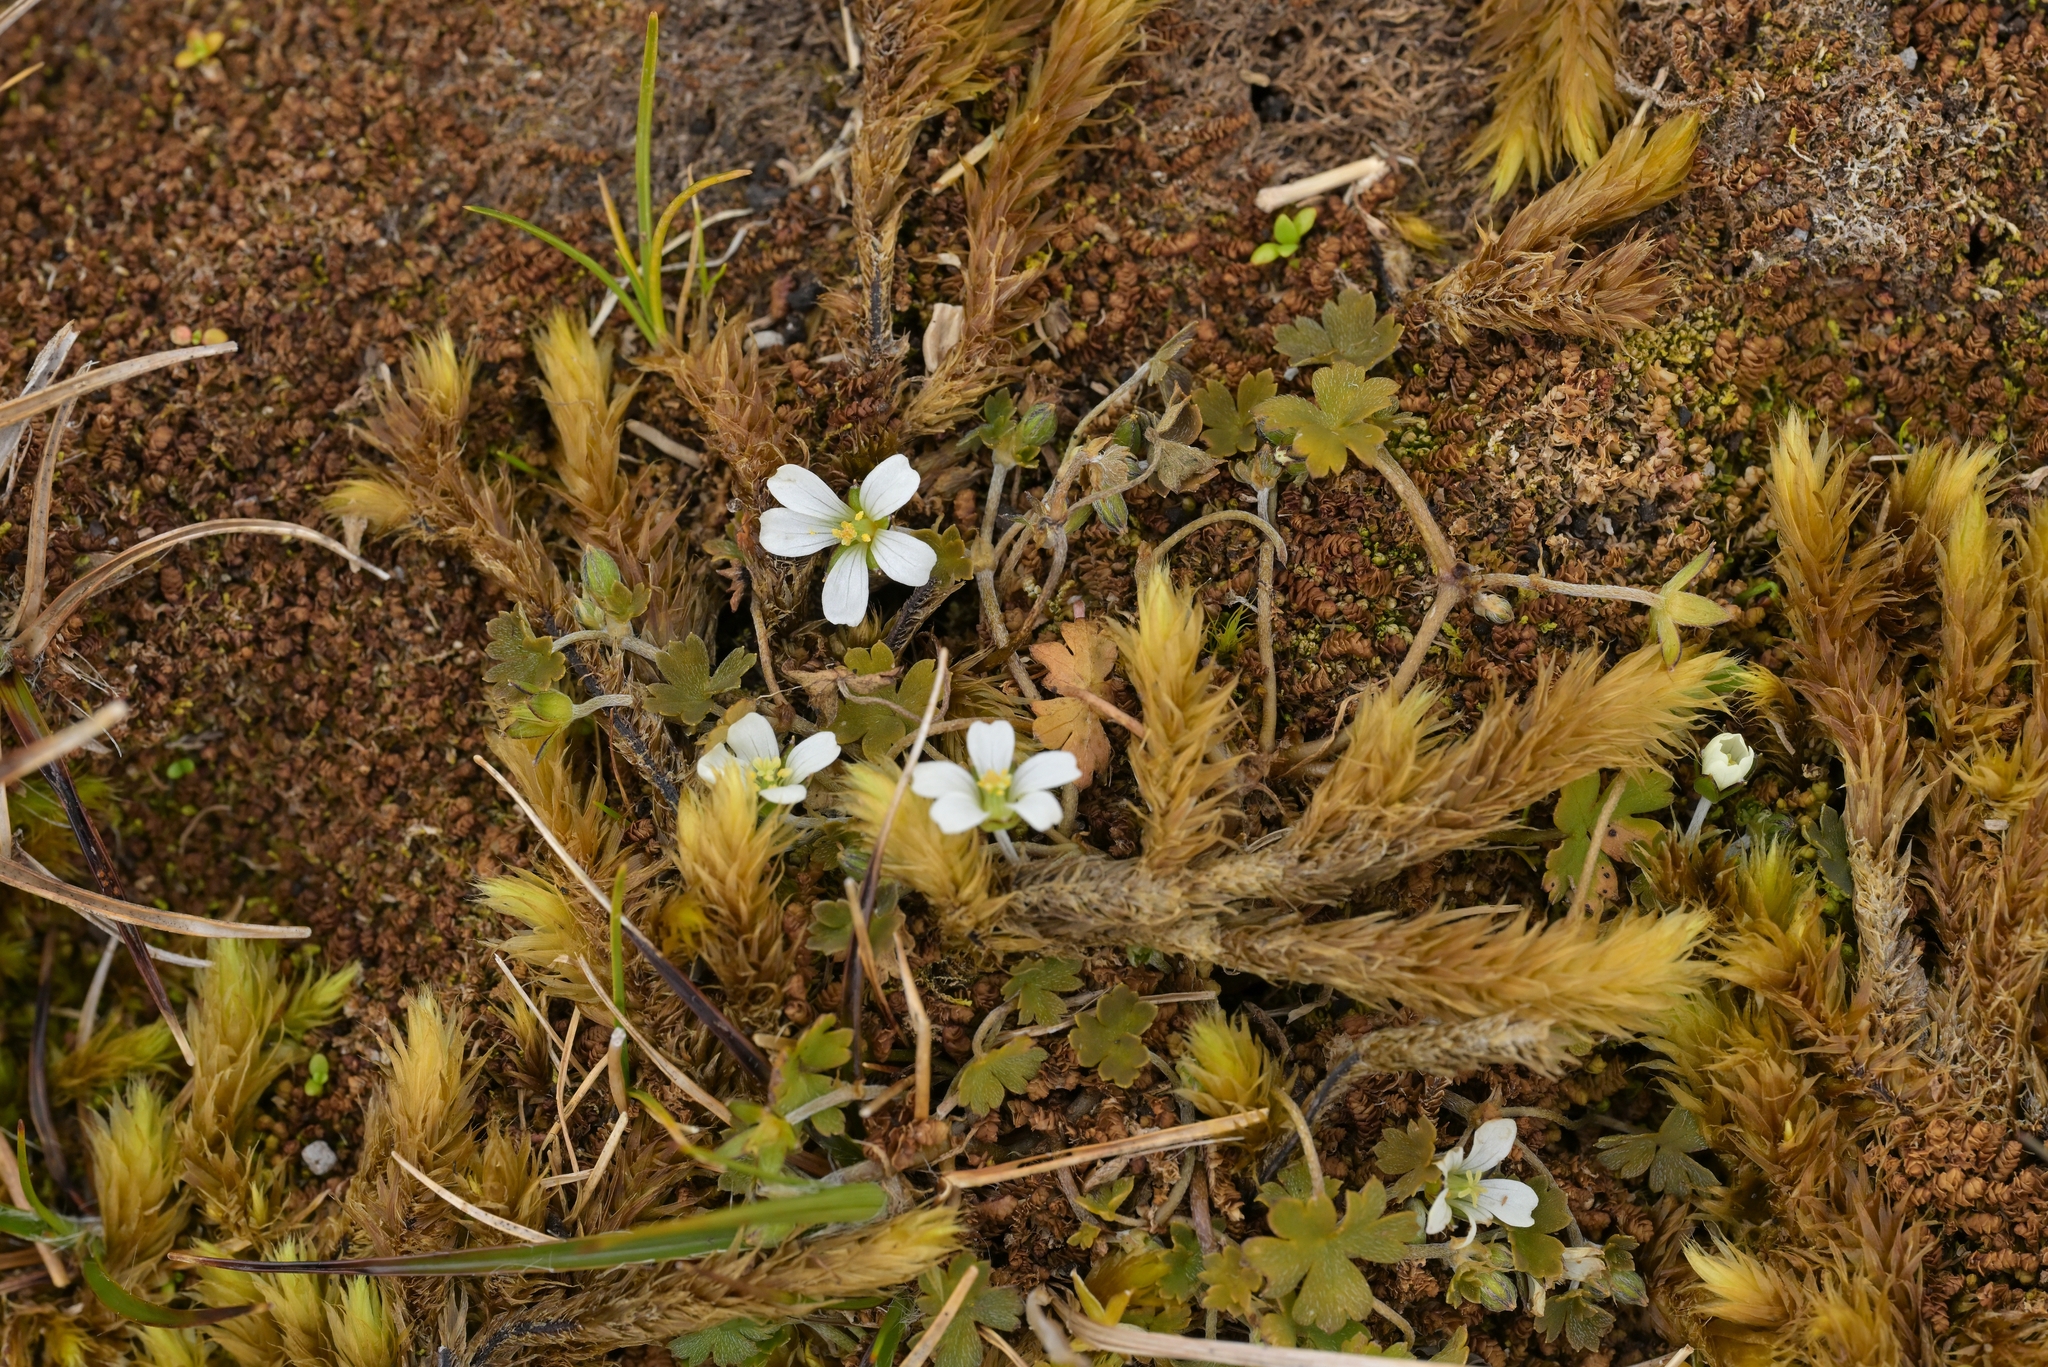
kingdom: Plantae
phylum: Tracheophyta
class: Magnoliopsida
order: Geraniales
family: Geraniaceae
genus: Geranium
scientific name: Geranium
